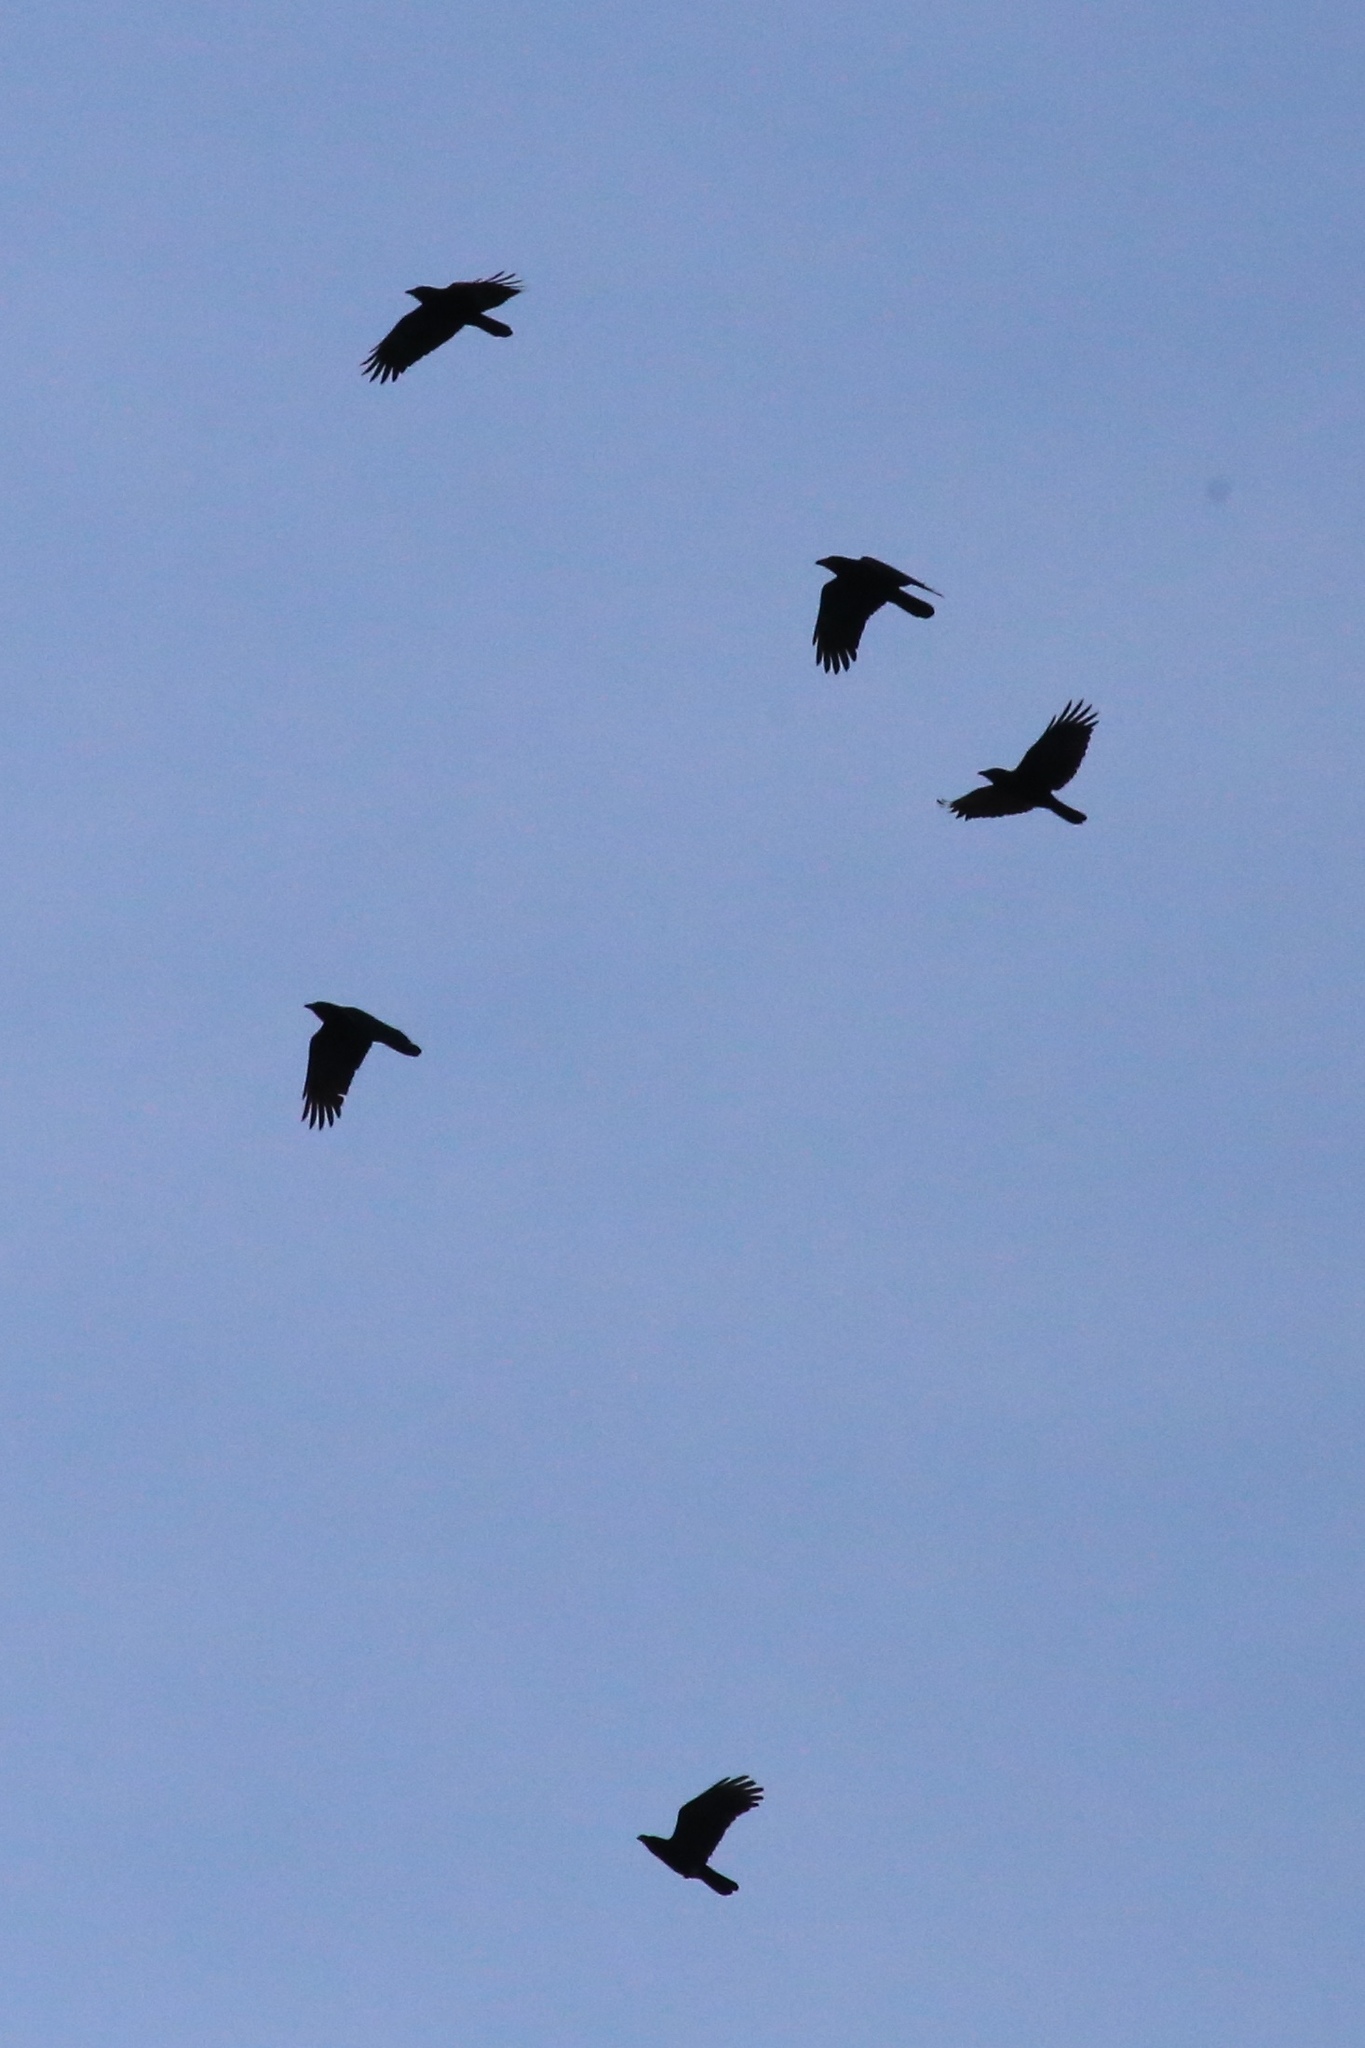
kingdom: Animalia
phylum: Chordata
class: Aves
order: Passeriformes
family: Corvidae
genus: Corvus
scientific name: Corvus brachyrhynchos
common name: American crow
